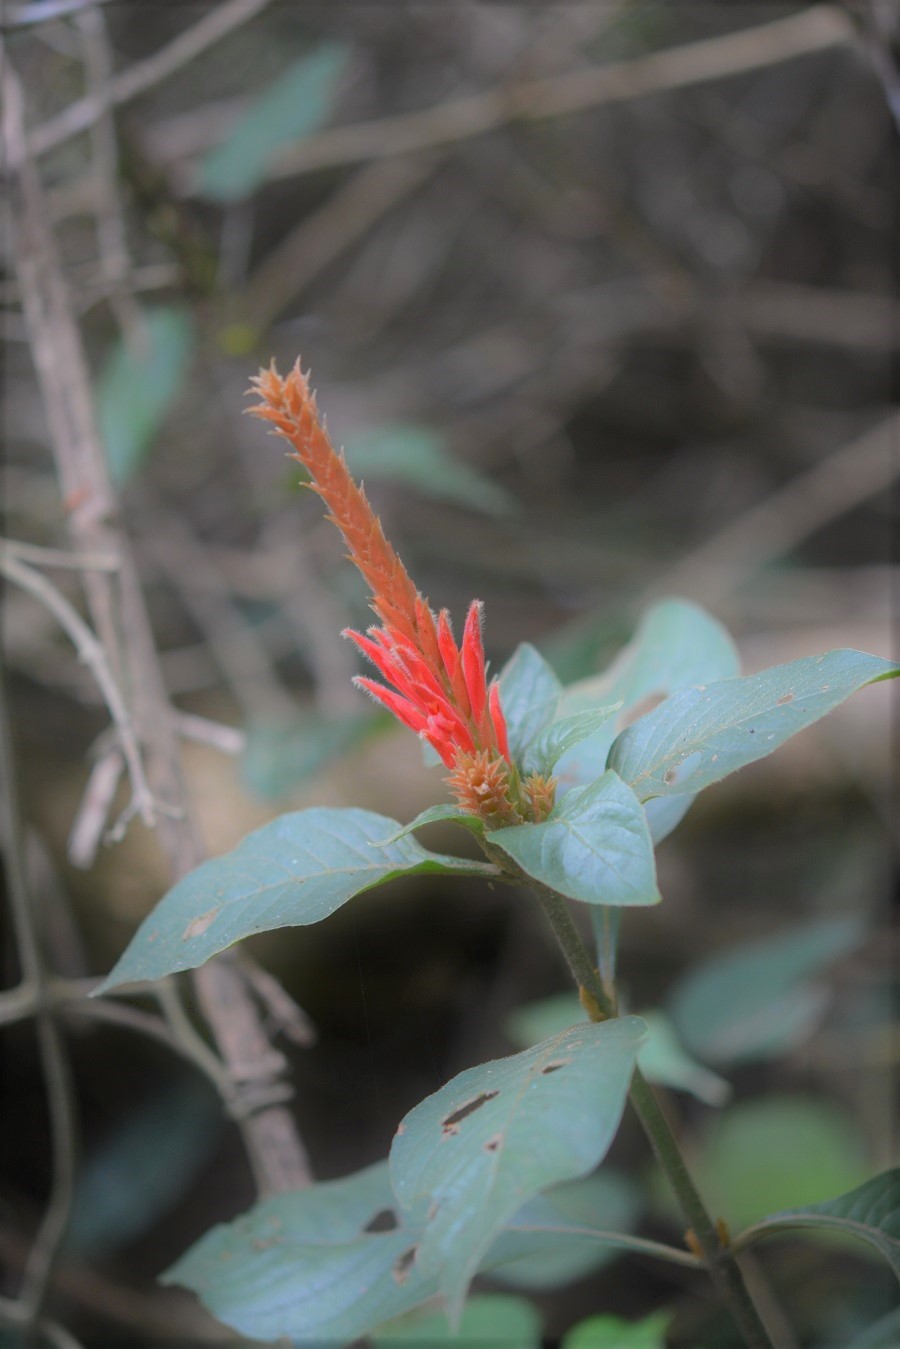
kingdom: Plantae
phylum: Tracheophyta
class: Magnoliopsida
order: Lamiales
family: Acanthaceae
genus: Aphelandra
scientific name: Aphelandra scabra
